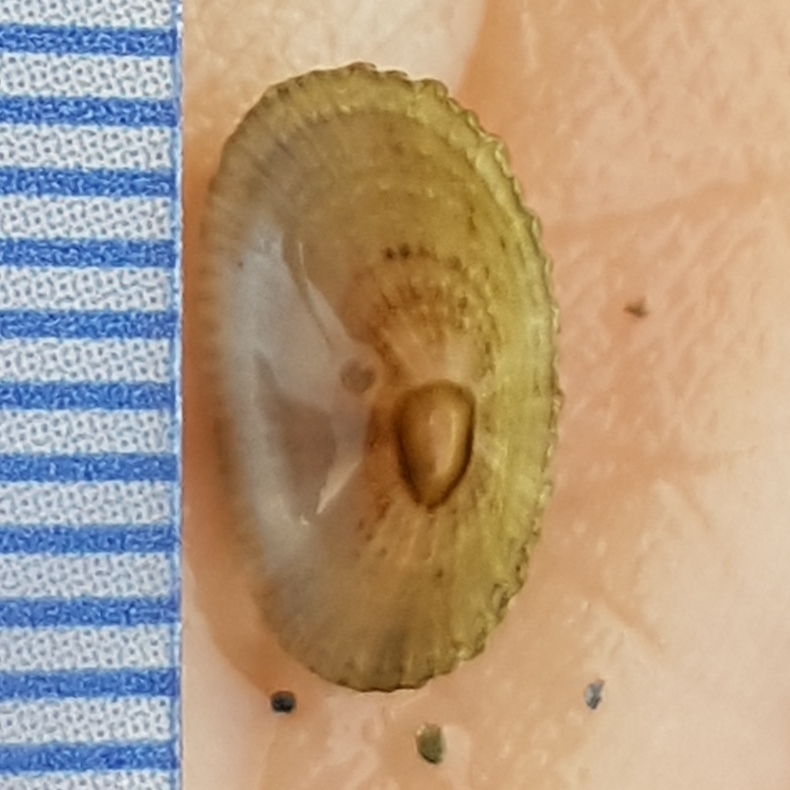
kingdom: Animalia
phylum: Mollusca
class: Gastropoda
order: Lepetellida
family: Fissurellidae
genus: Diodora
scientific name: Diodora gibberula
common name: Humped keyhole limpet
